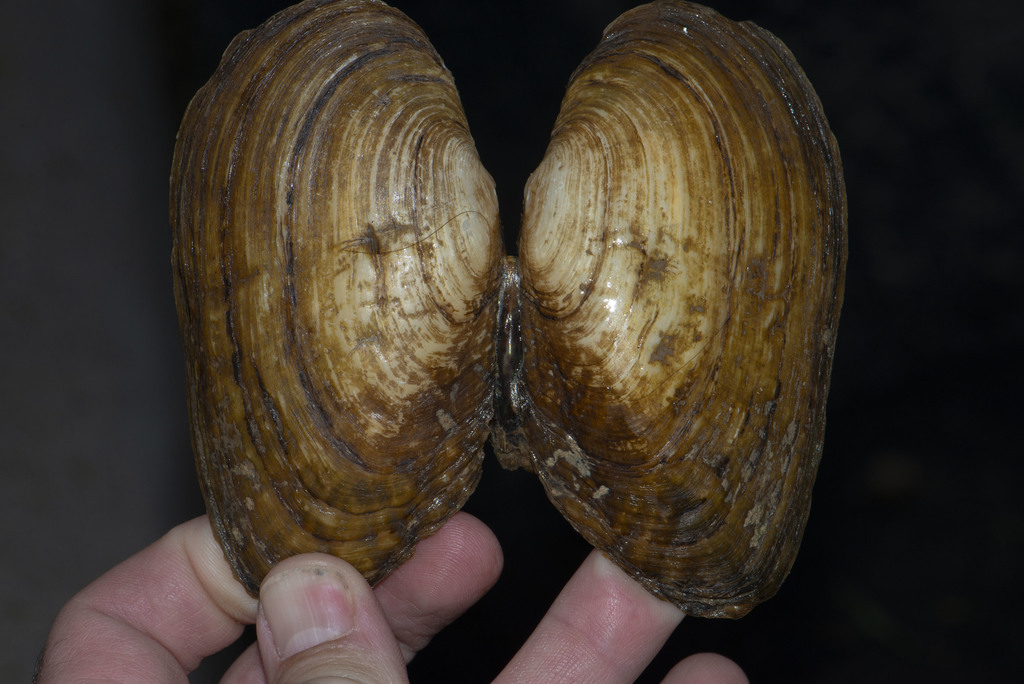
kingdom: Animalia
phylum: Mollusca
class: Bivalvia
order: Unionida
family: Unionidae
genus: Lasmigona
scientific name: Lasmigona costata
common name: Flutedshell
